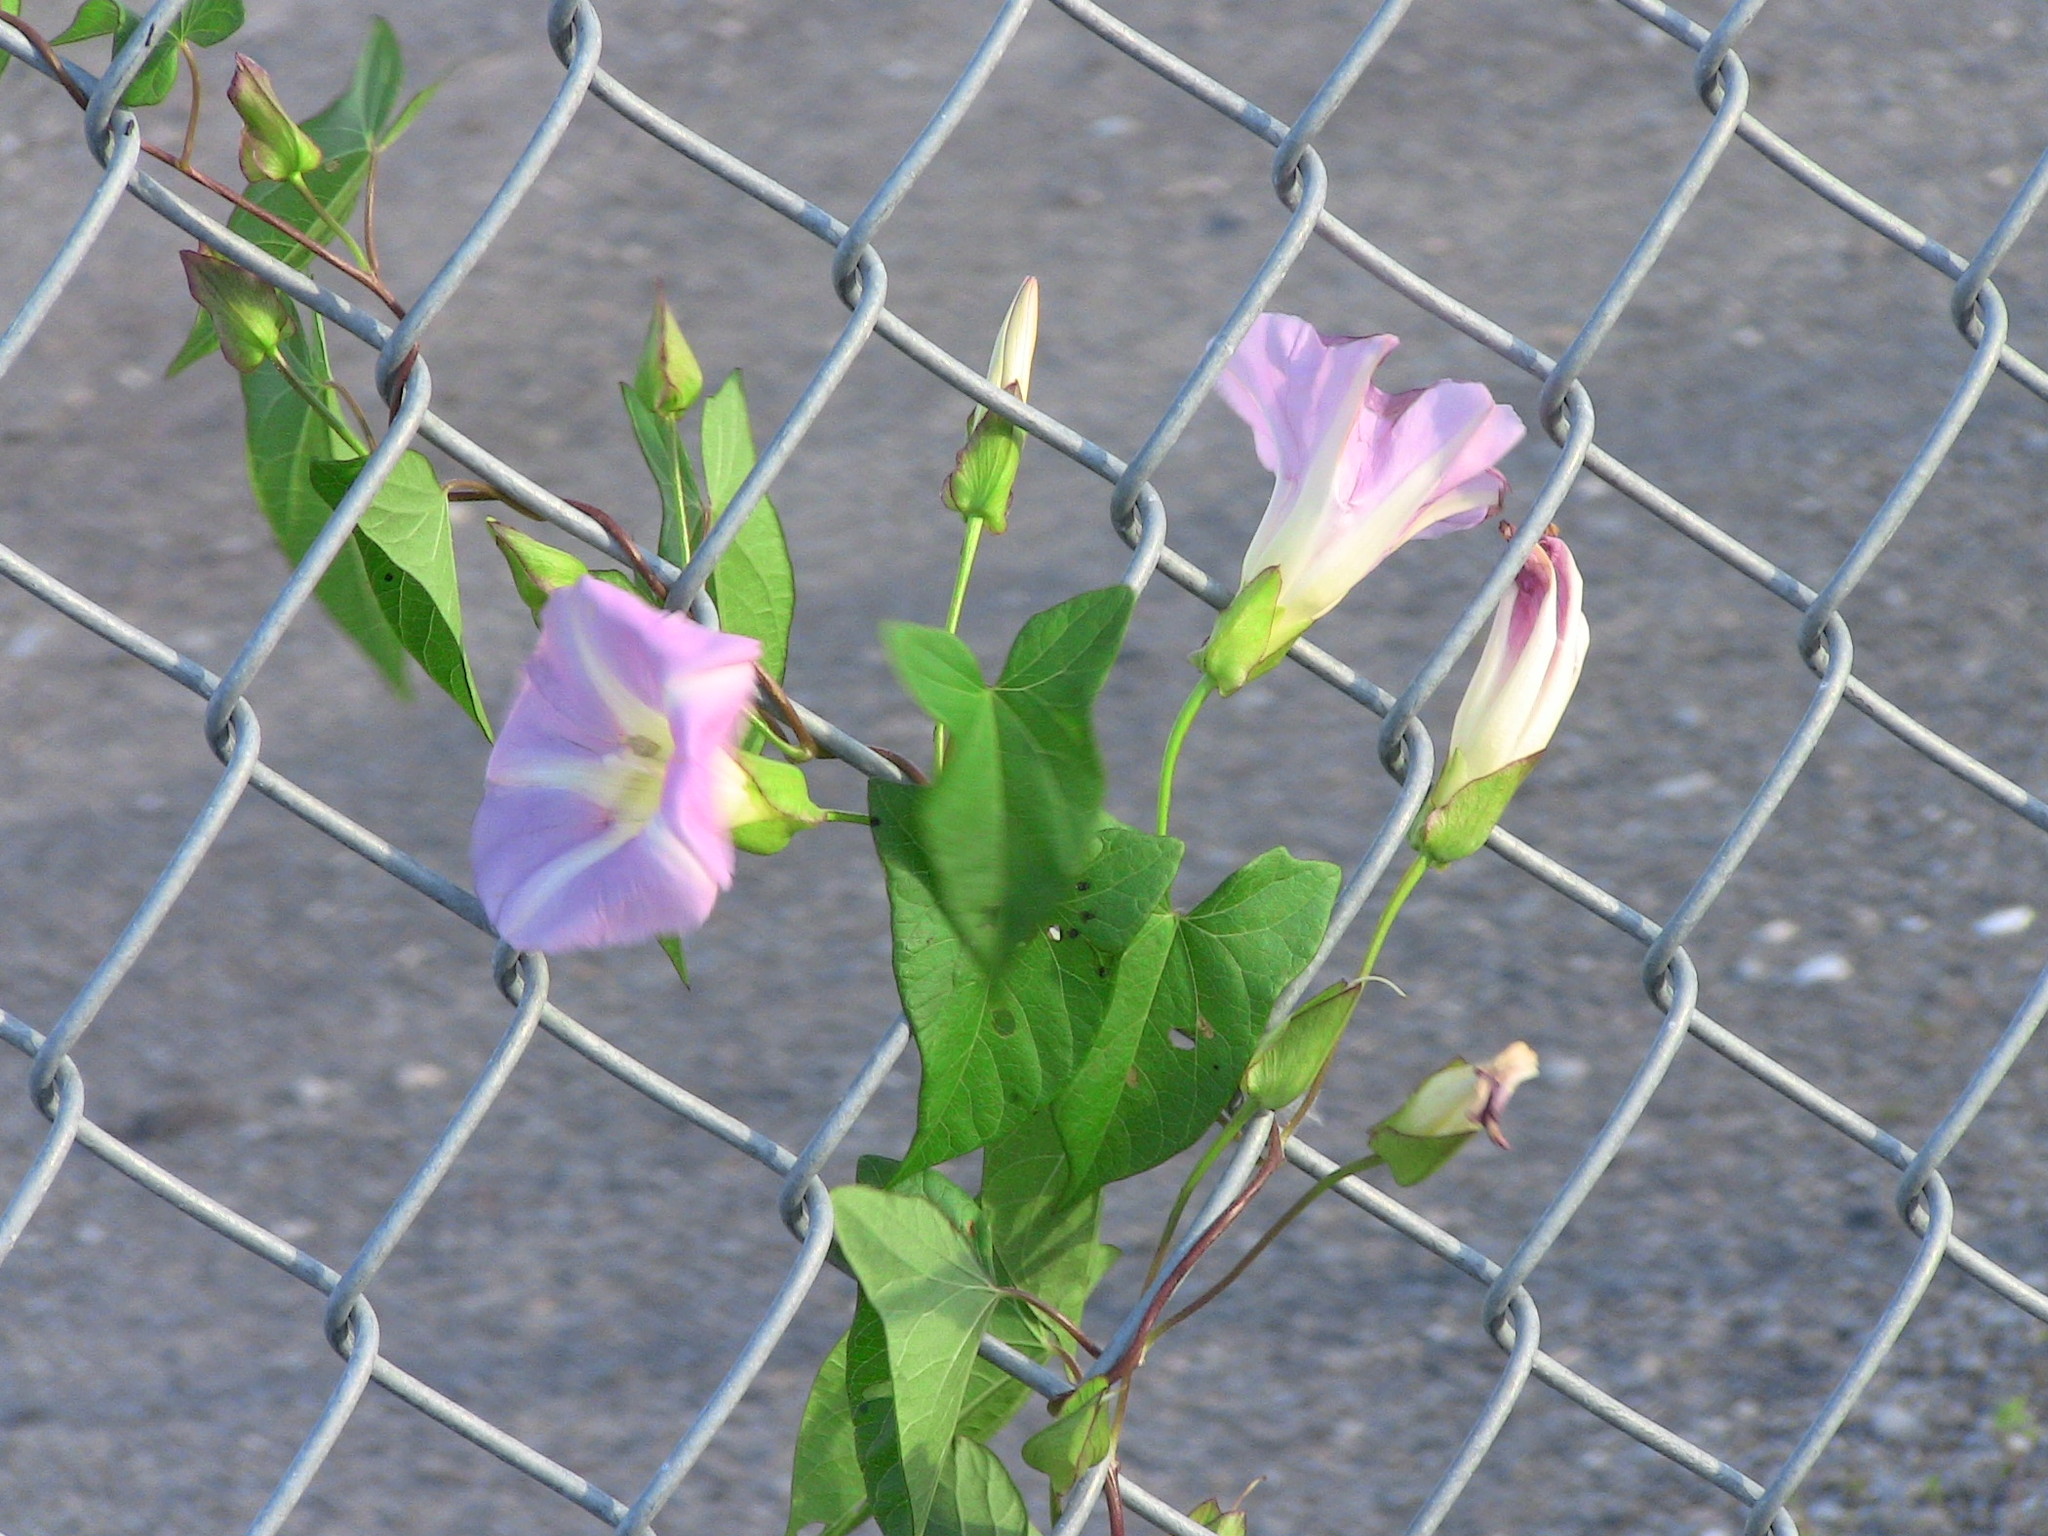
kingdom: Plantae
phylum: Tracheophyta
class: Magnoliopsida
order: Solanales
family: Convolvulaceae
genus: Calystegia
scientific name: Calystegia sepium
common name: Hedge bindweed
